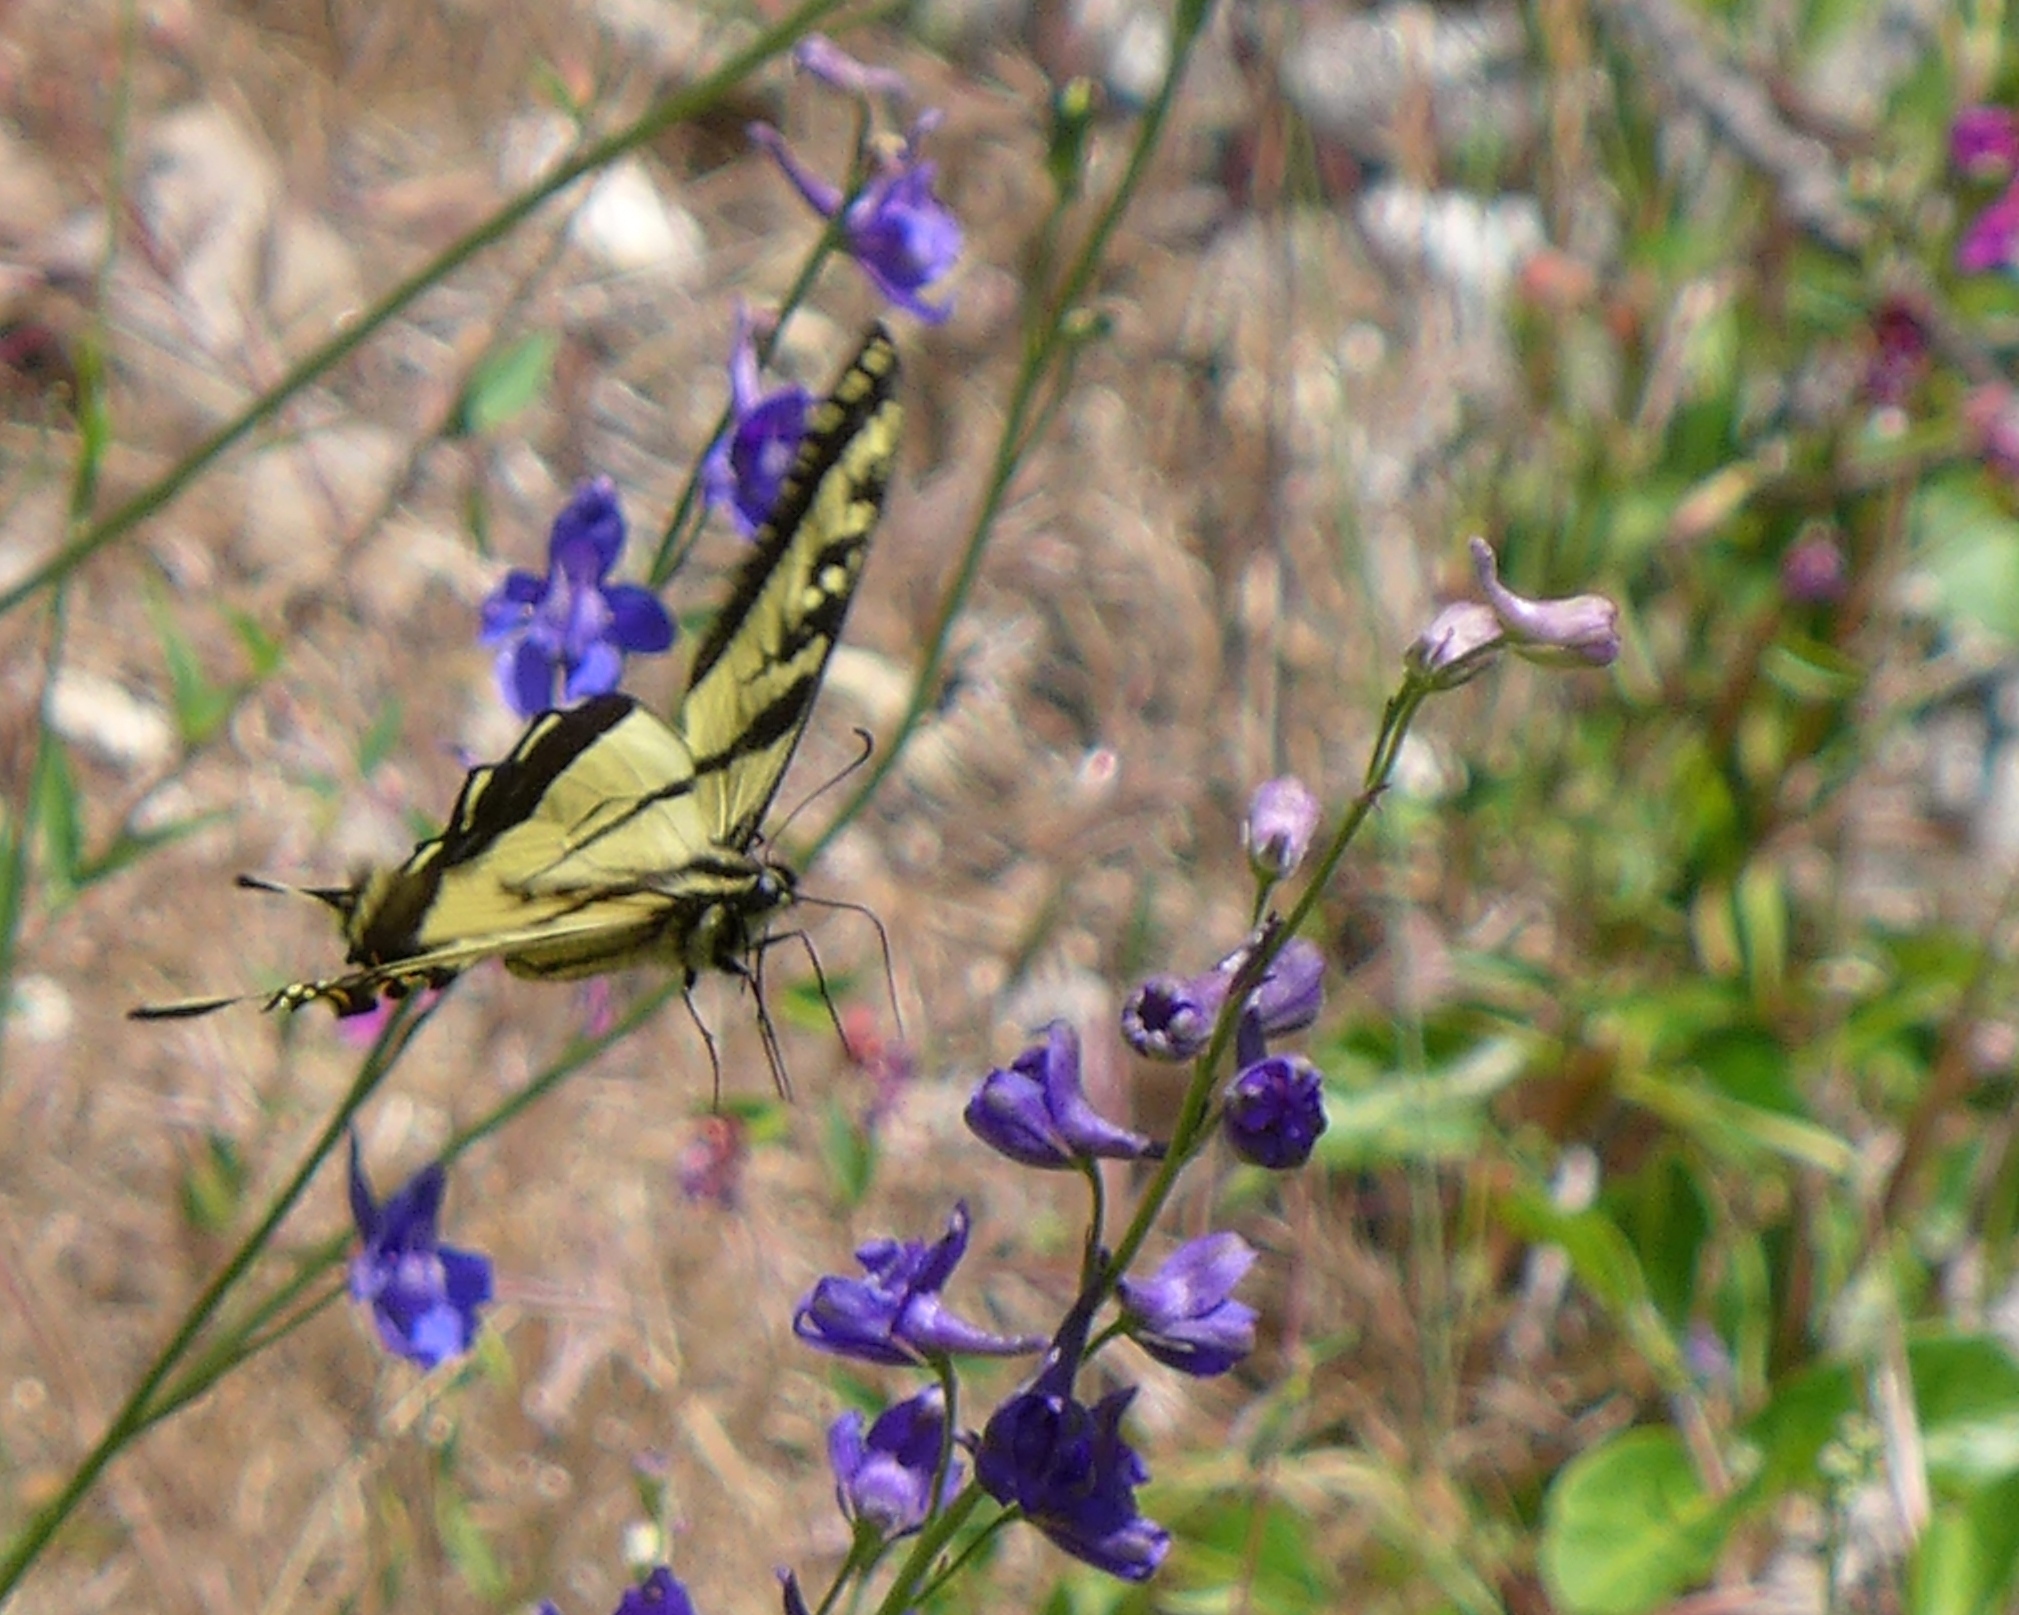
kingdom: Animalia
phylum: Arthropoda
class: Insecta
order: Lepidoptera
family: Papilionidae
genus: Papilio
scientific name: Papilio rutulus
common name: Western tiger swallowtail
